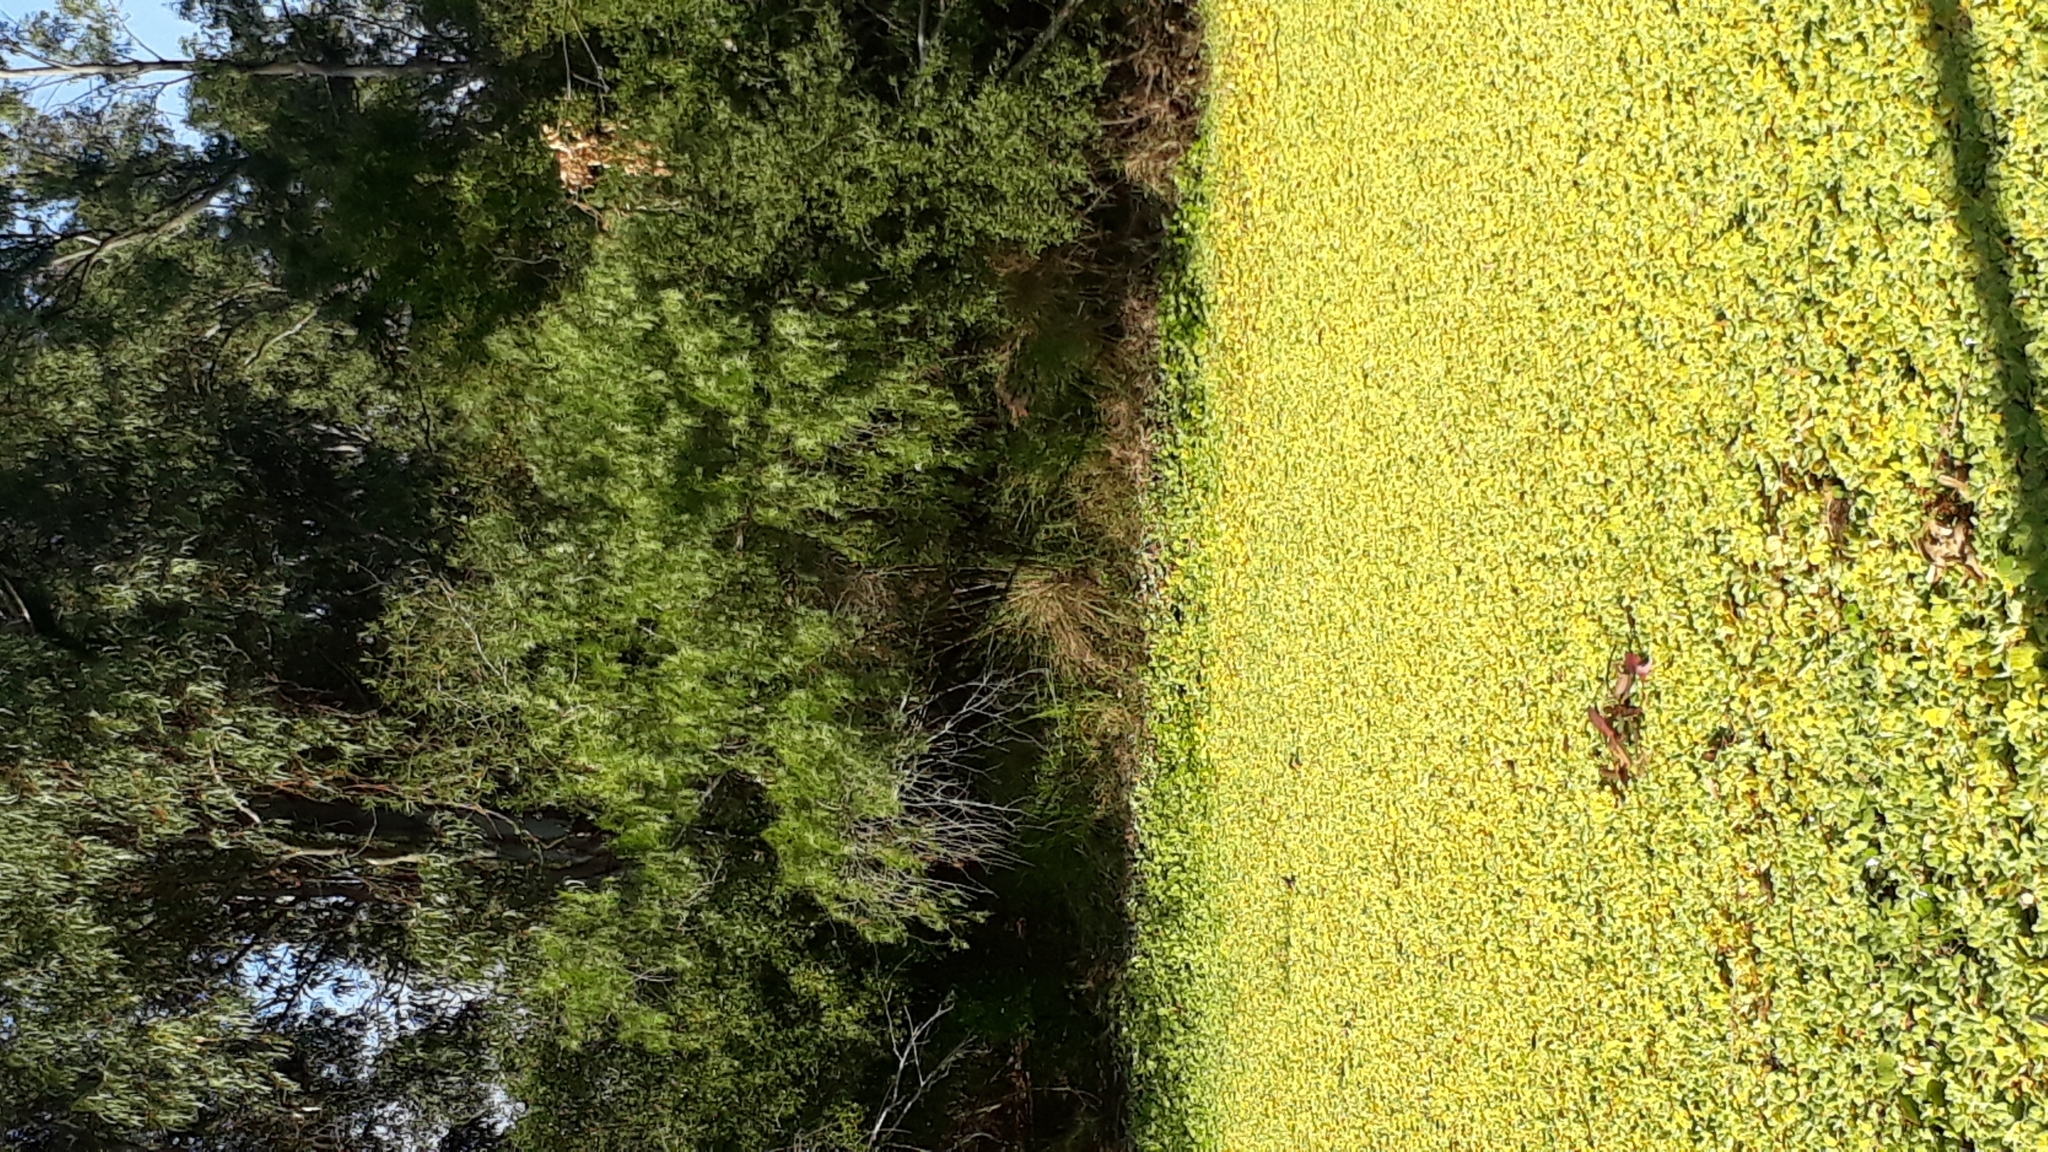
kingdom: Plantae
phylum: Tracheophyta
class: Liliopsida
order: Alismatales
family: Araceae
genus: Pistia
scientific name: Pistia stratiotes
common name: Water lettuce
